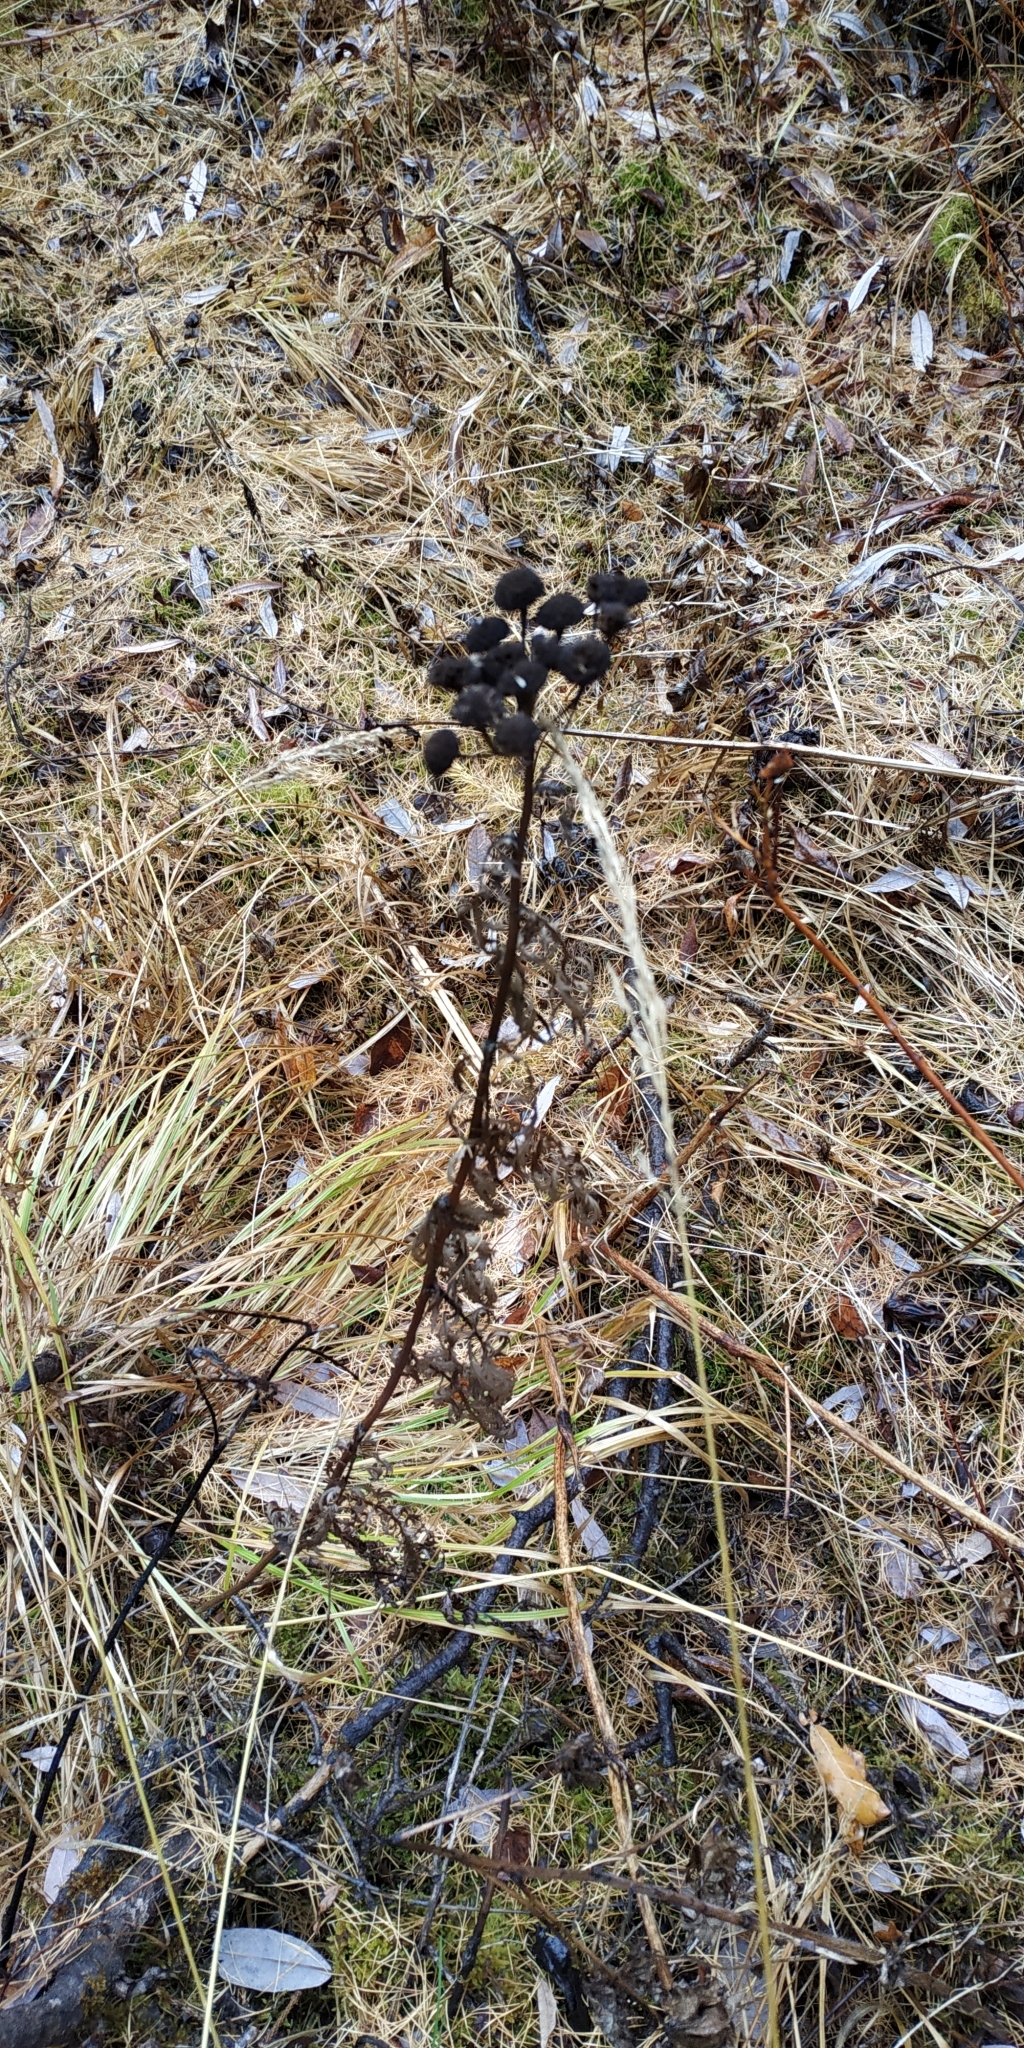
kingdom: Plantae
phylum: Tracheophyta
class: Magnoliopsida
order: Asterales
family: Asteraceae
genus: Tanacetum
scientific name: Tanacetum vulgare
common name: Common tansy
